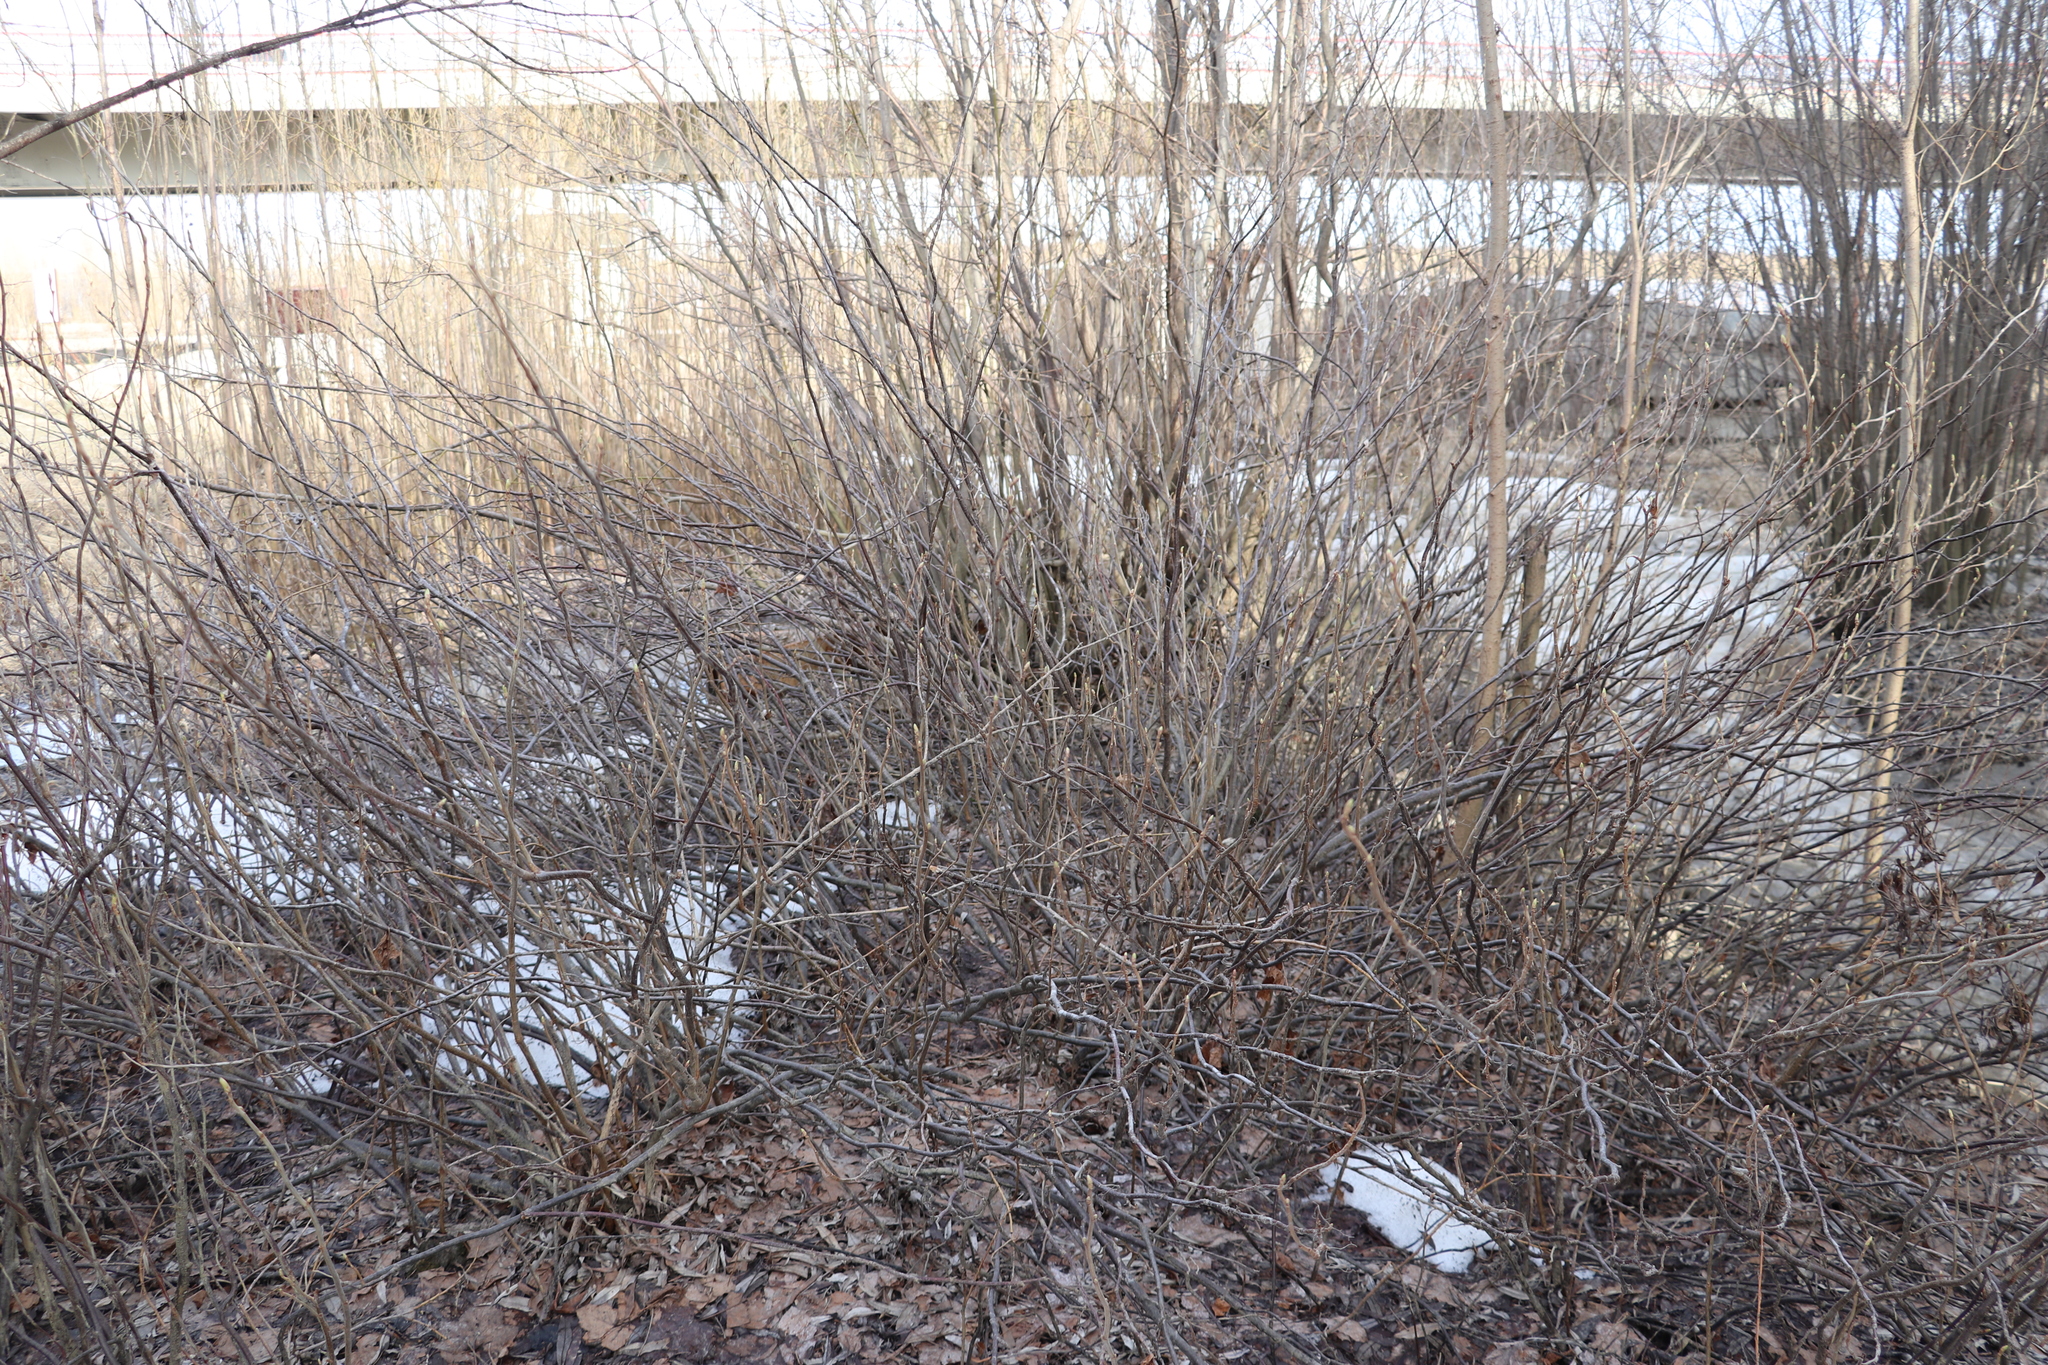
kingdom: Plantae
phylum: Tracheophyta
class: Magnoliopsida
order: Saxifragales
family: Grossulariaceae
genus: Ribes
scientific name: Ribes nigrum
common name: Black currant
